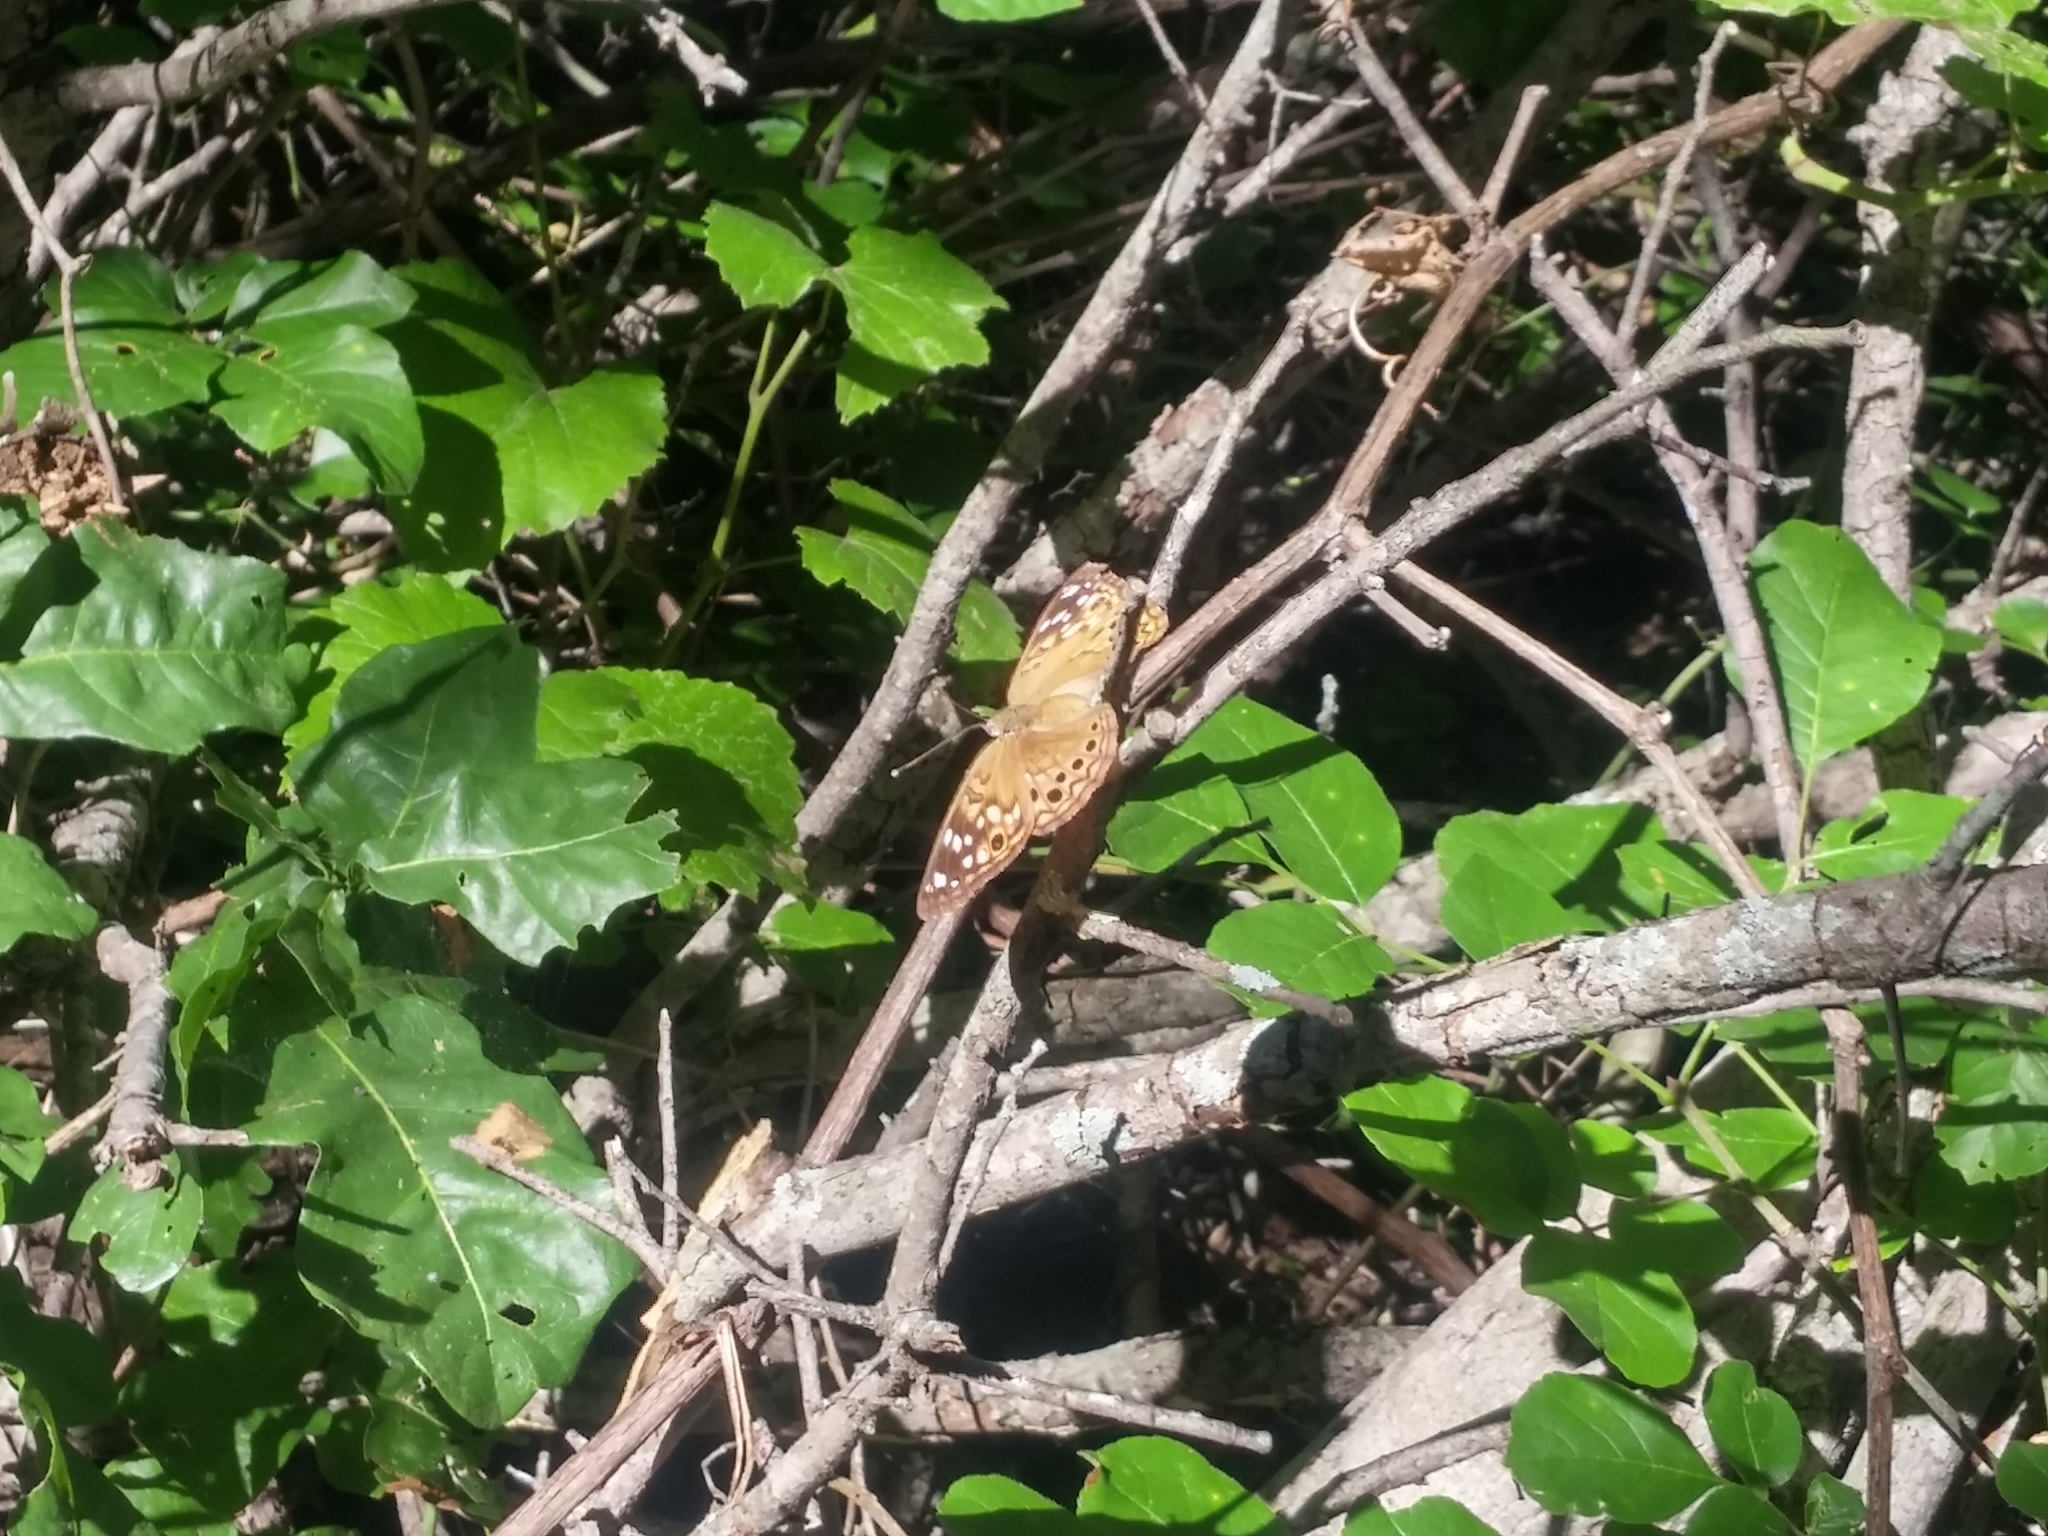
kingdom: Animalia
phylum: Arthropoda
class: Insecta
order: Lepidoptera
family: Nymphalidae
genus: Asterocampa
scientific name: Asterocampa celtis
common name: Hackberry emperor
